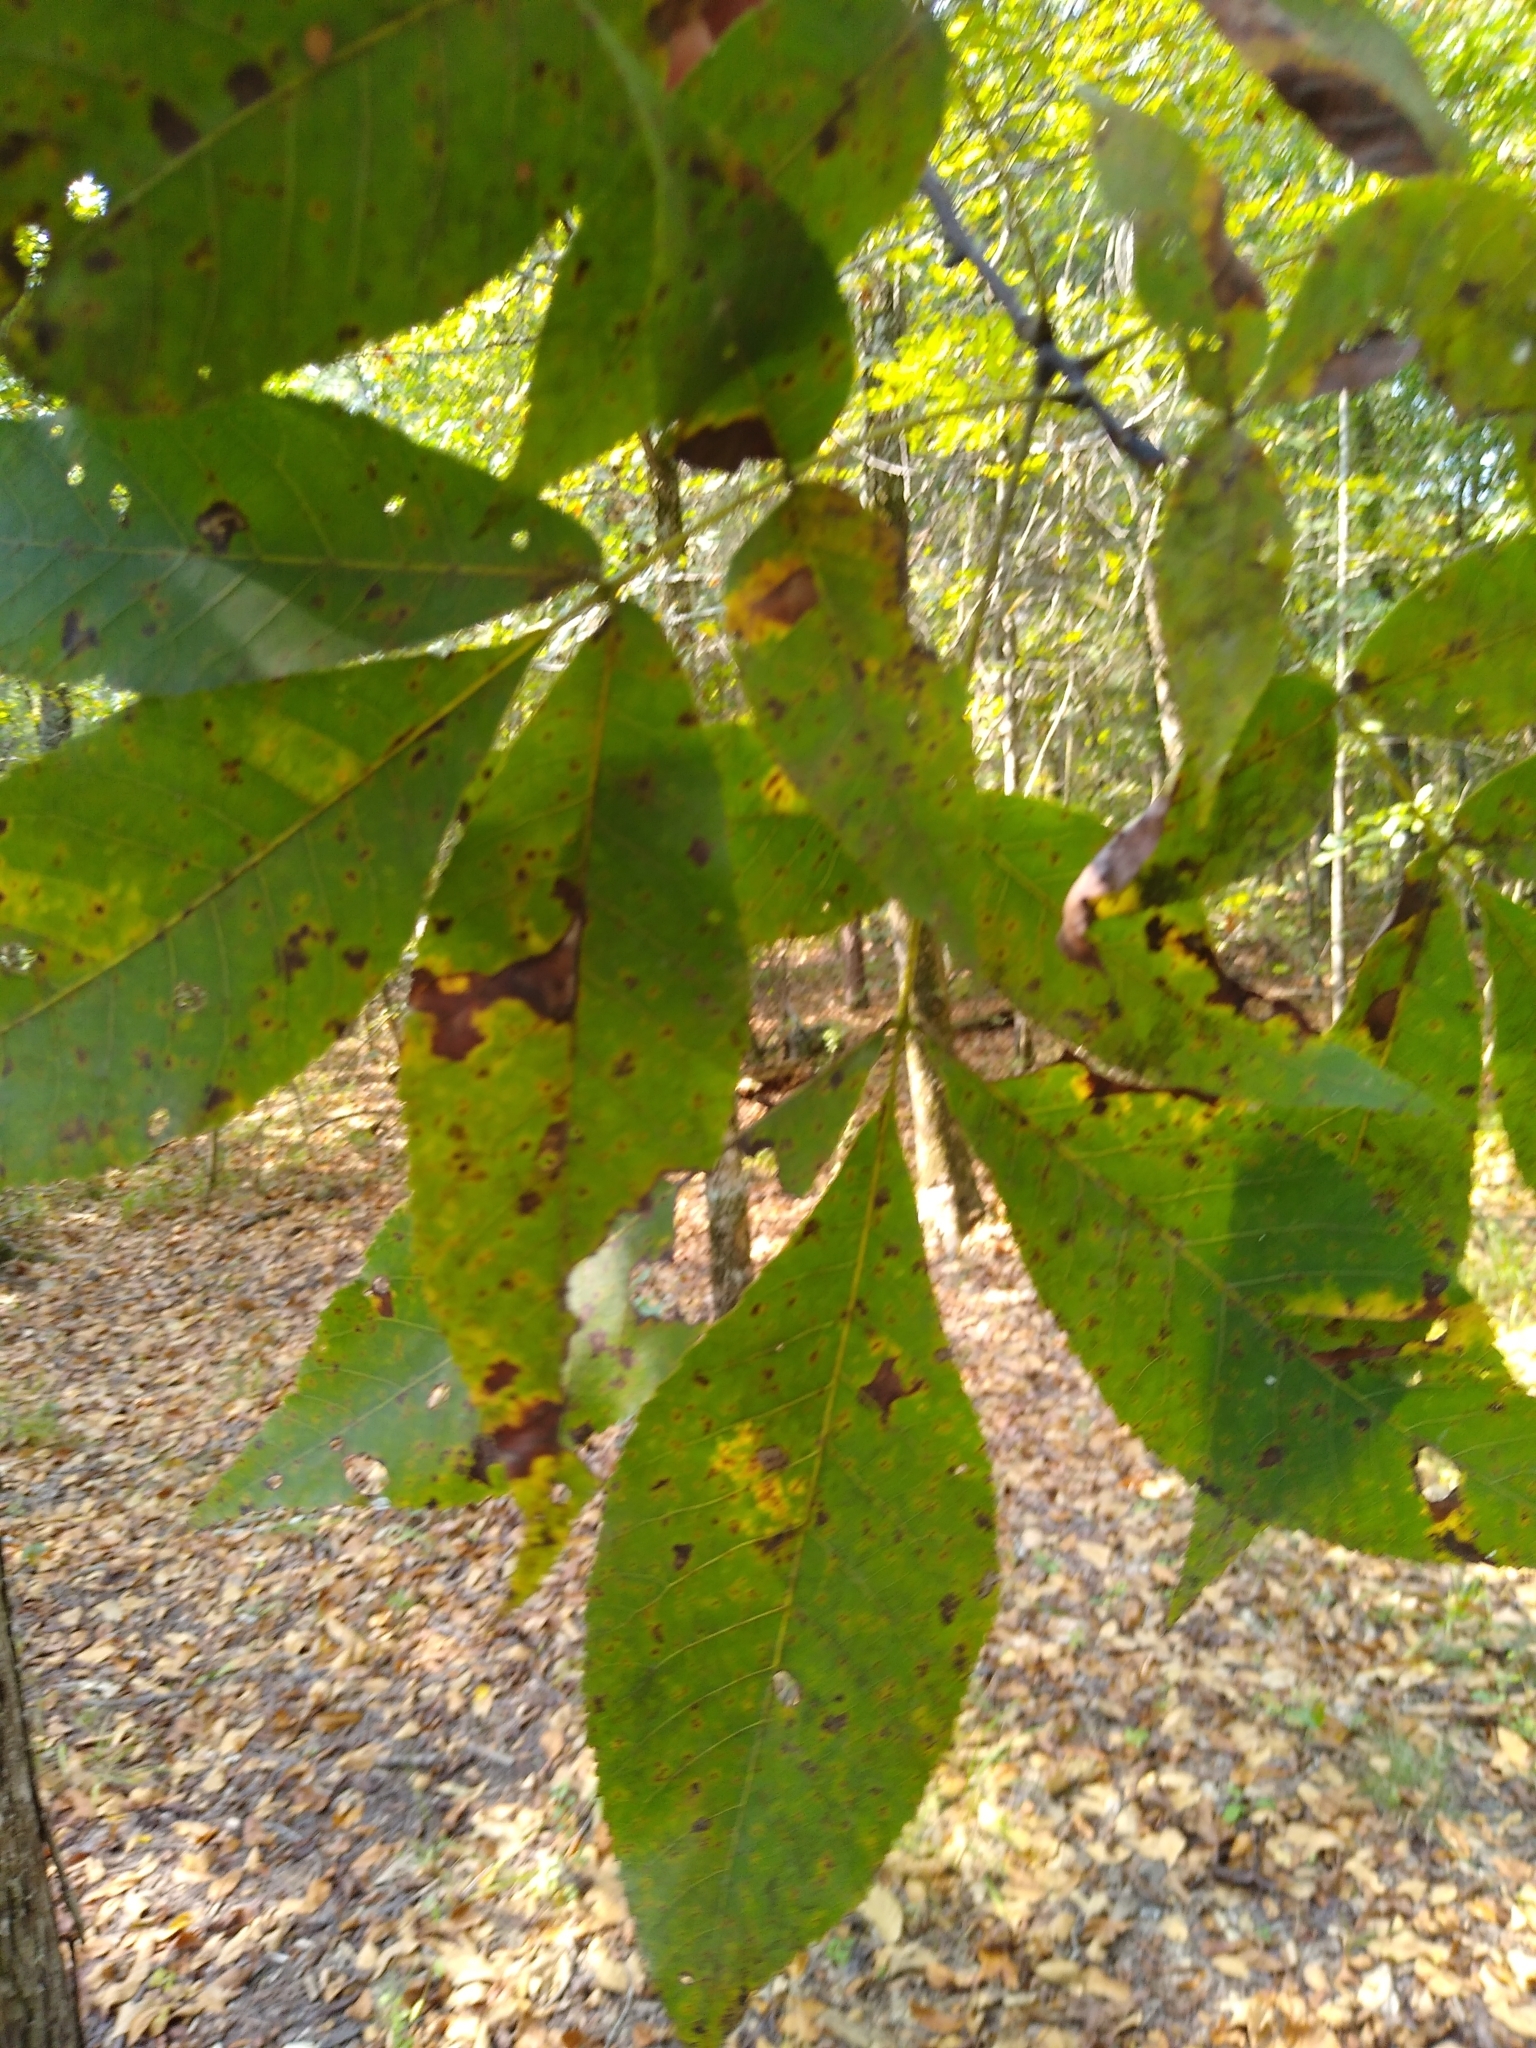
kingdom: Plantae
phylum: Tracheophyta
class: Magnoliopsida
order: Fagales
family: Juglandaceae
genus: Carya
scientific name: Carya ovata
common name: Shagbark hickory
